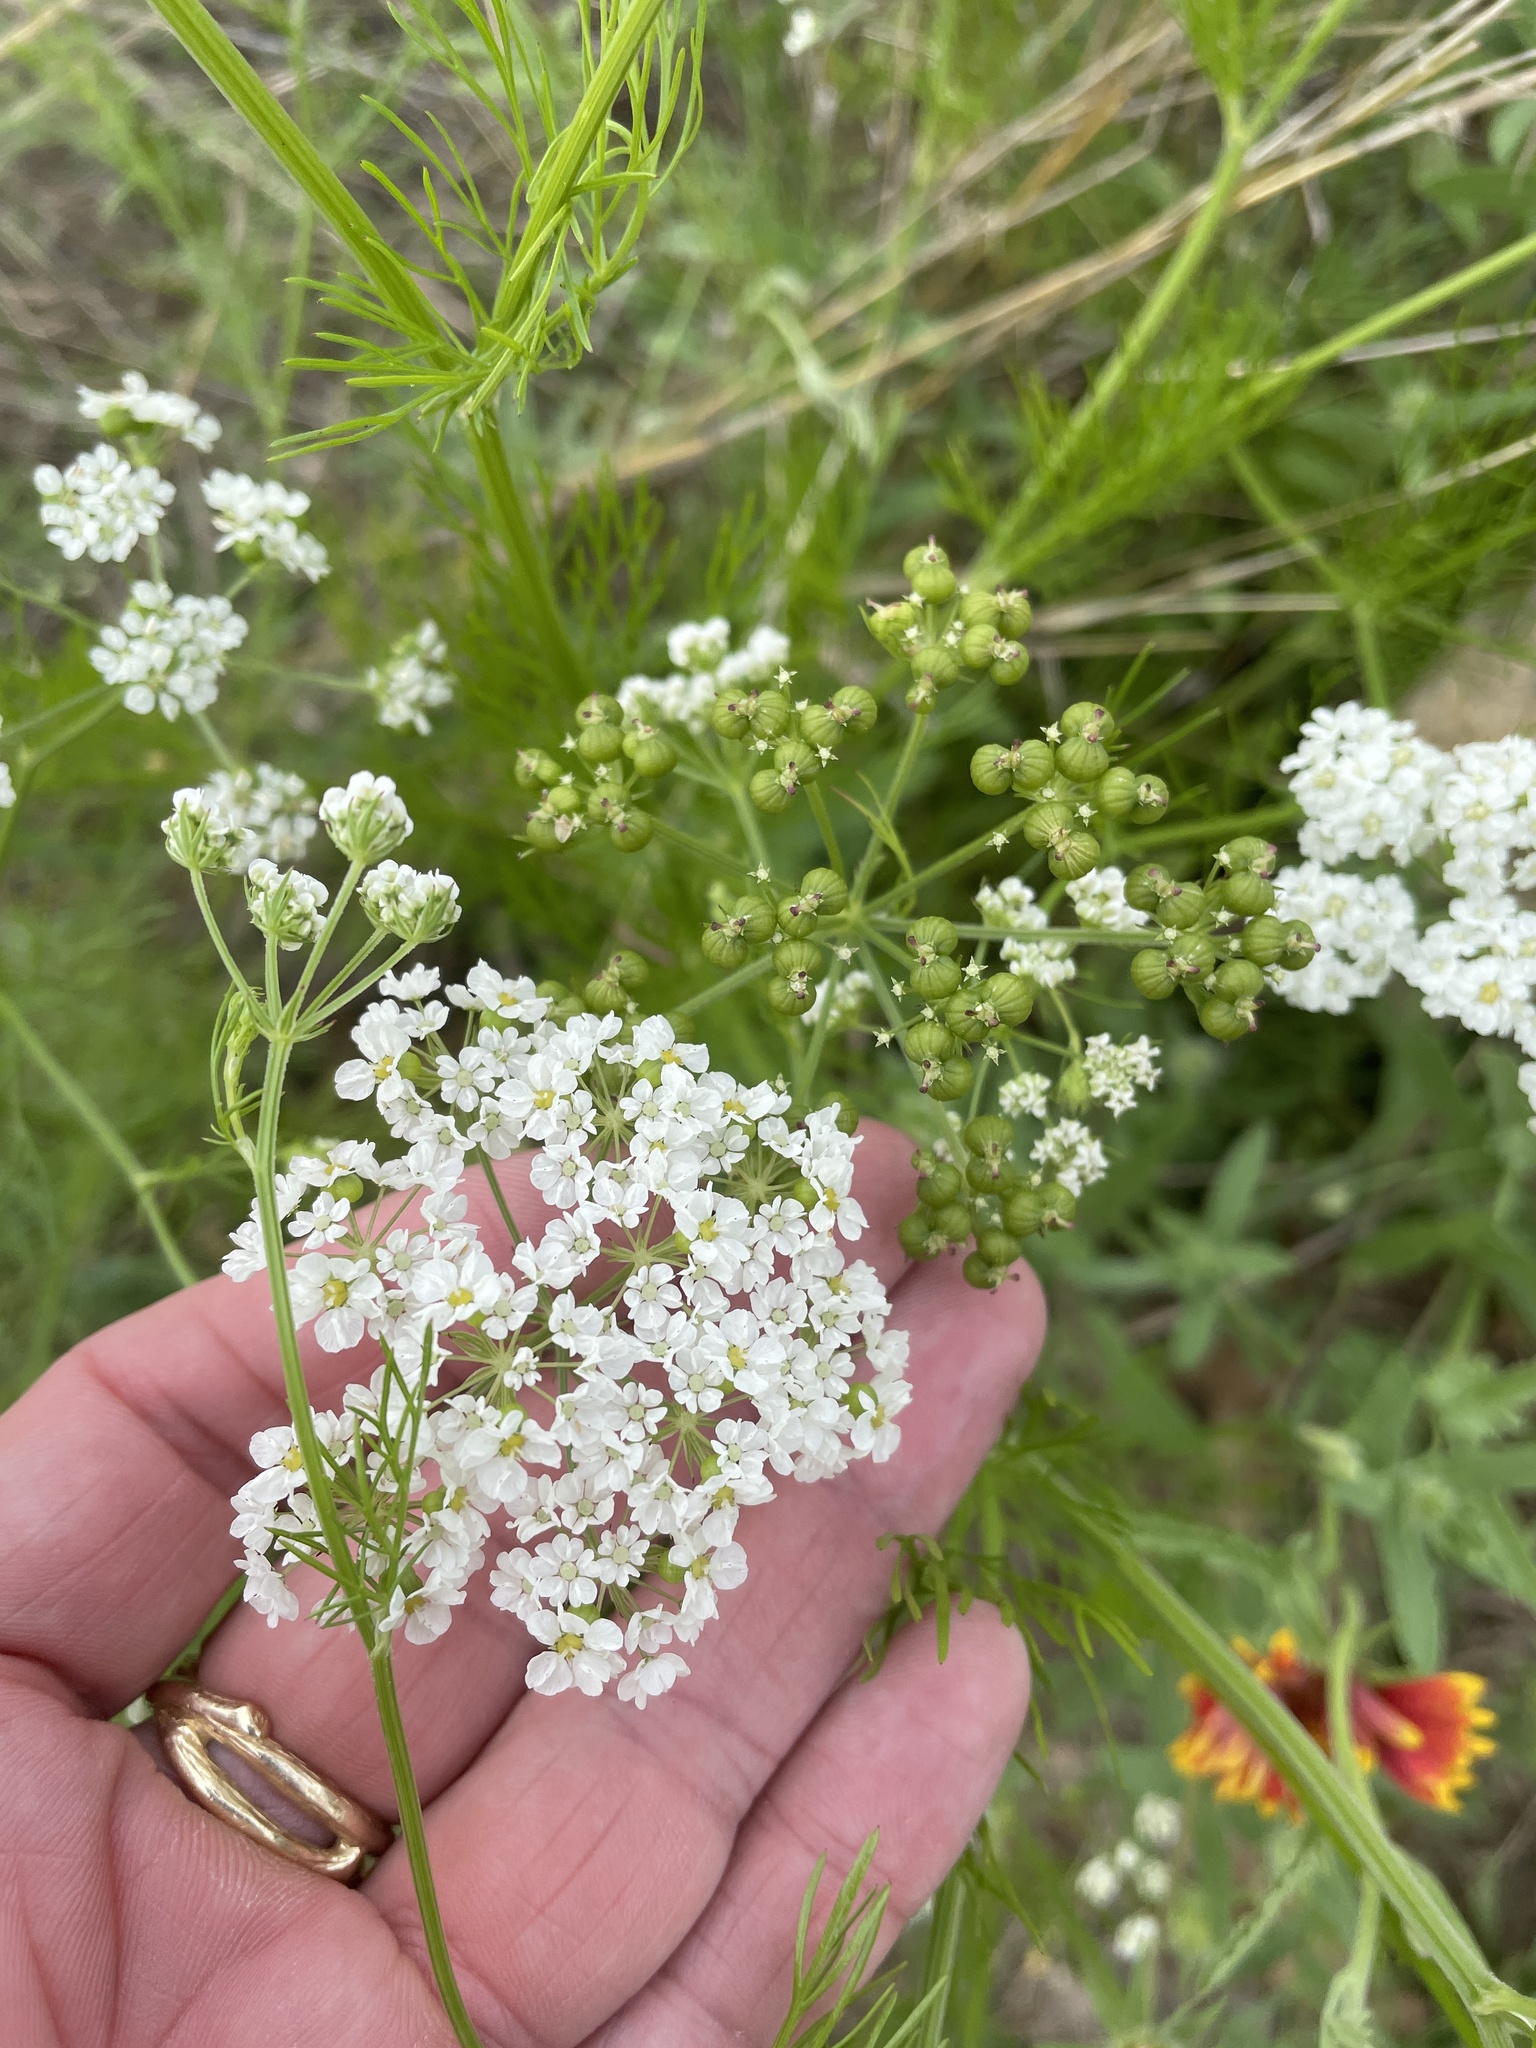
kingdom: Plantae
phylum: Tracheophyta
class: Magnoliopsida
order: Apiales
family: Apiaceae
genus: Atrema
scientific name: Atrema americanum
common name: Prairie-bishop
